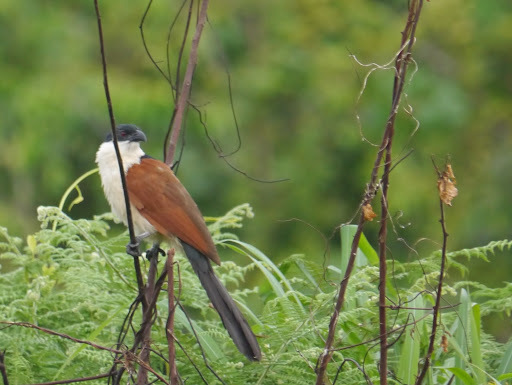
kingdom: Animalia
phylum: Chordata
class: Aves
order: Cuculiformes
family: Cuculidae
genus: Centropus
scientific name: Centropus senegalensis
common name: Senegal coucal
